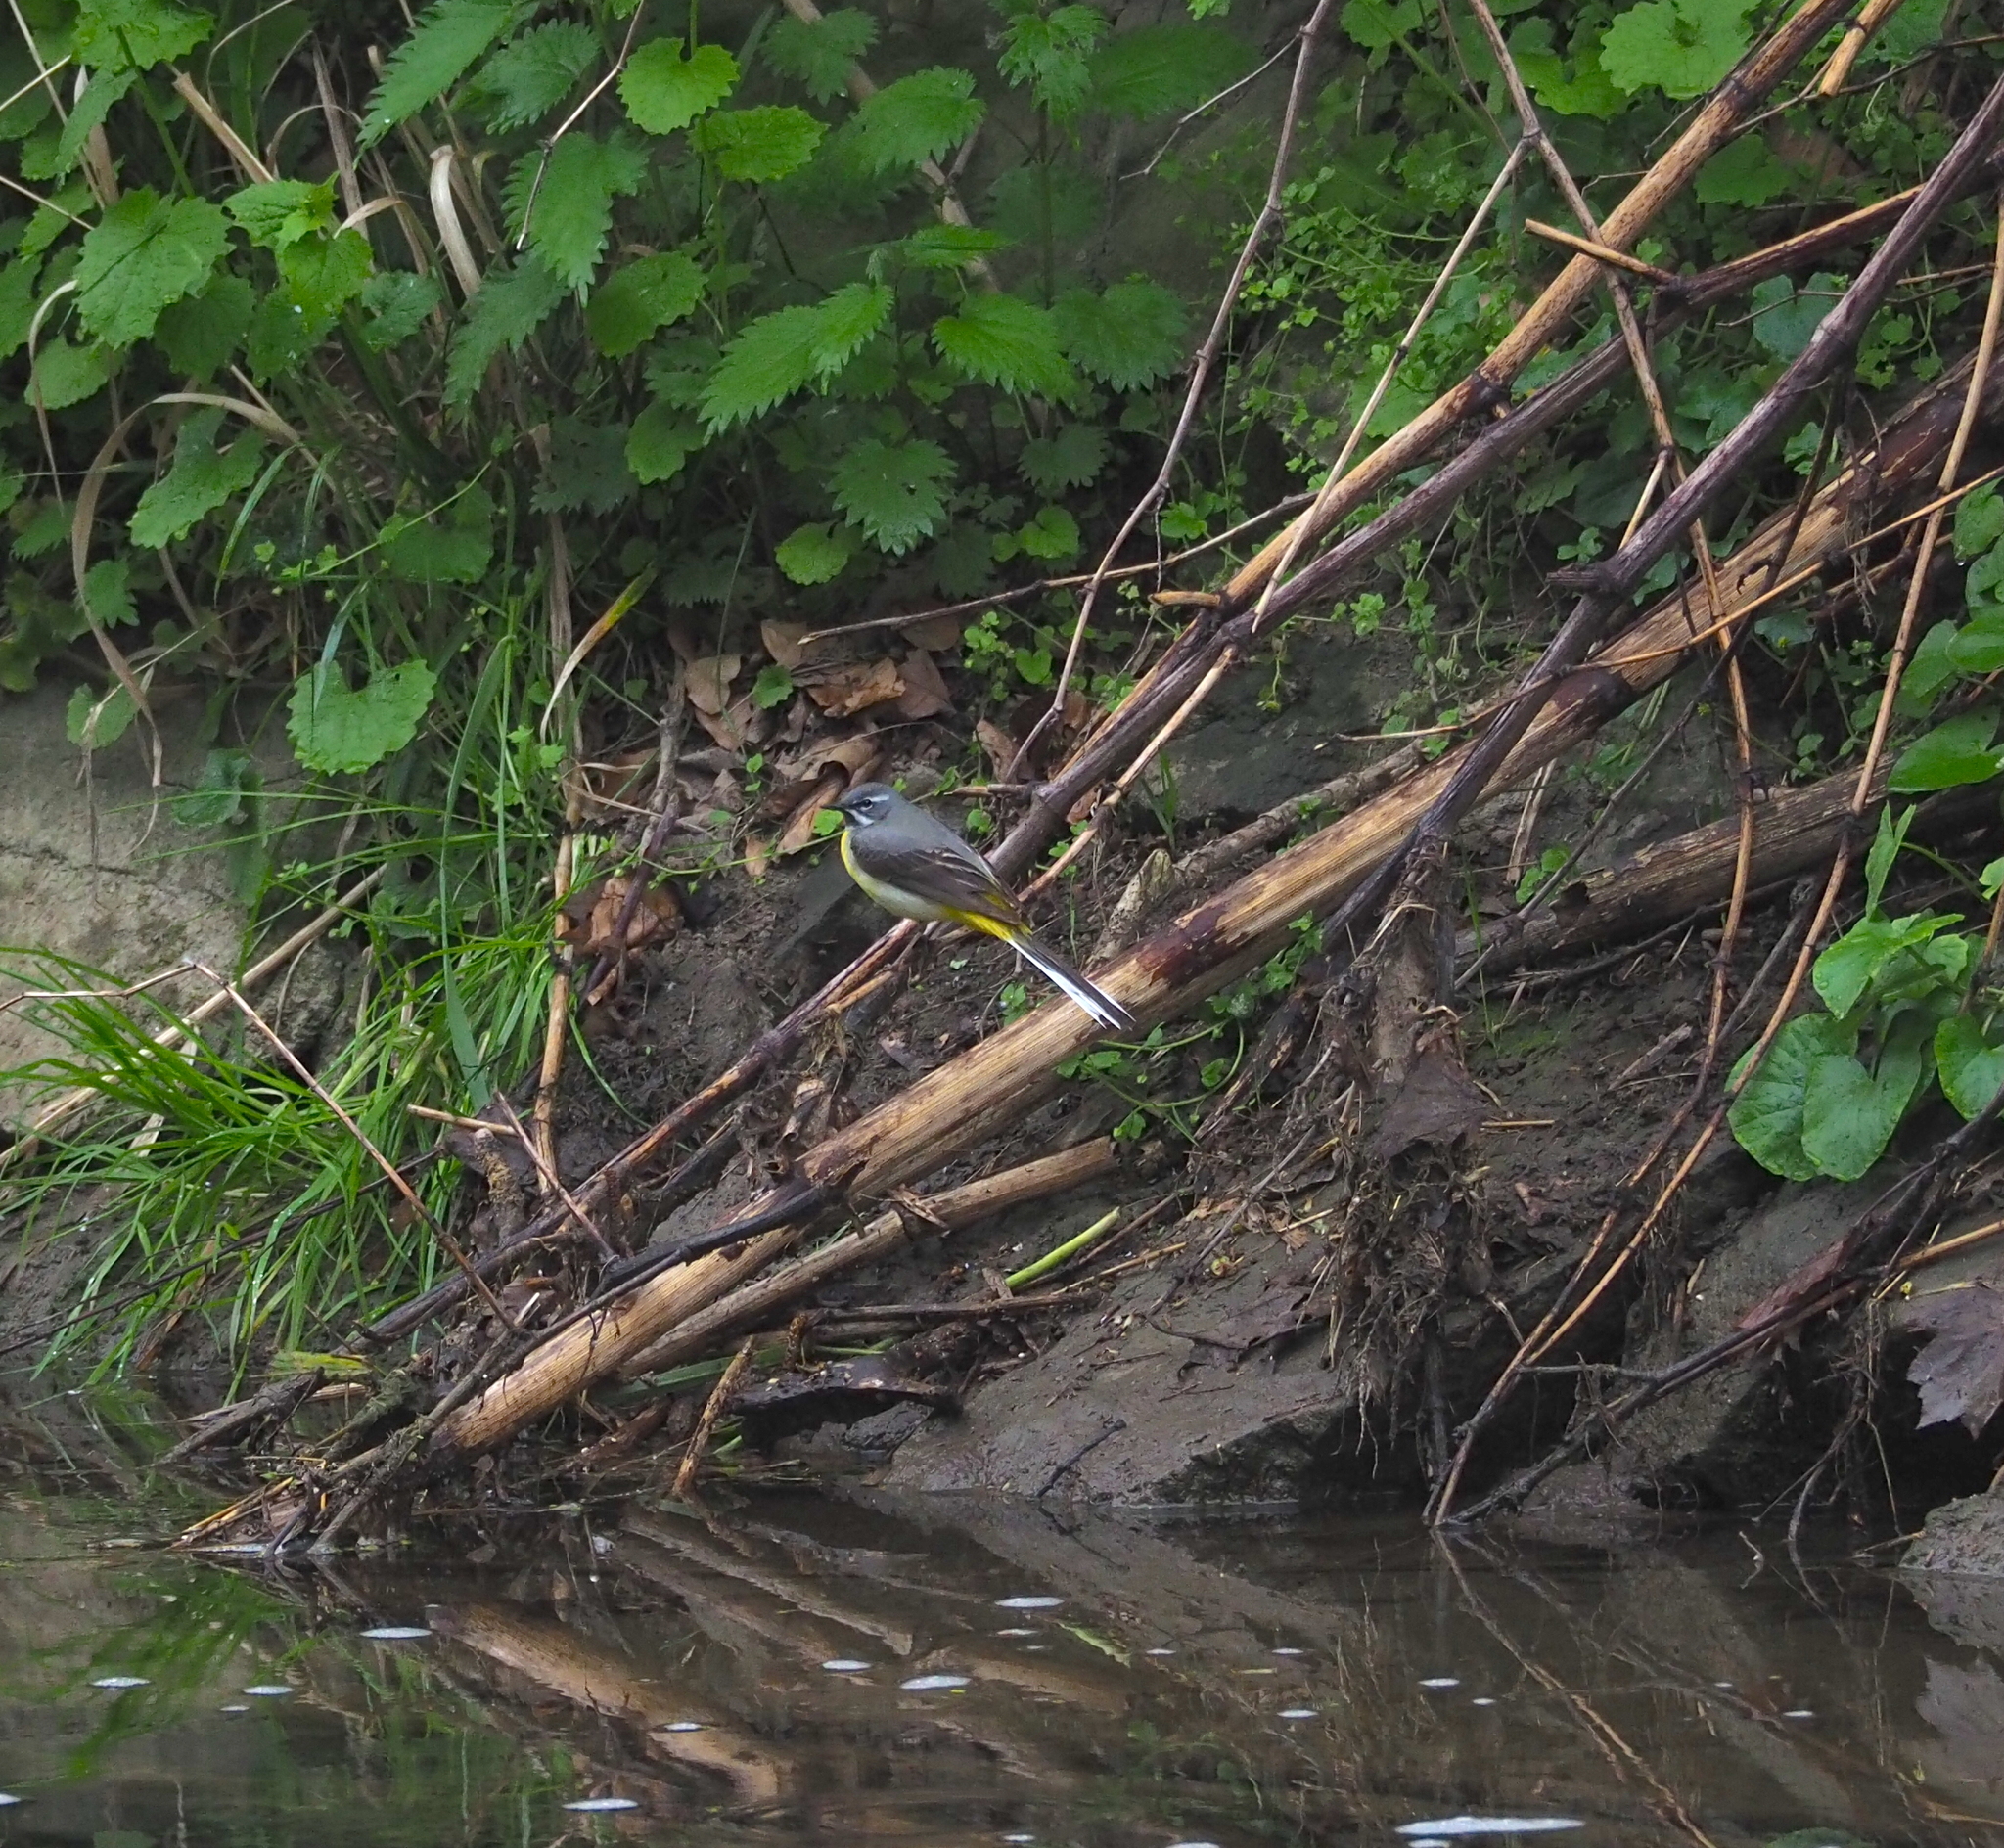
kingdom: Animalia
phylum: Chordata
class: Aves
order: Passeriformes
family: Motacillidae
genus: Motacilla
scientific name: Motacilla cinerea
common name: Grey wagtail
